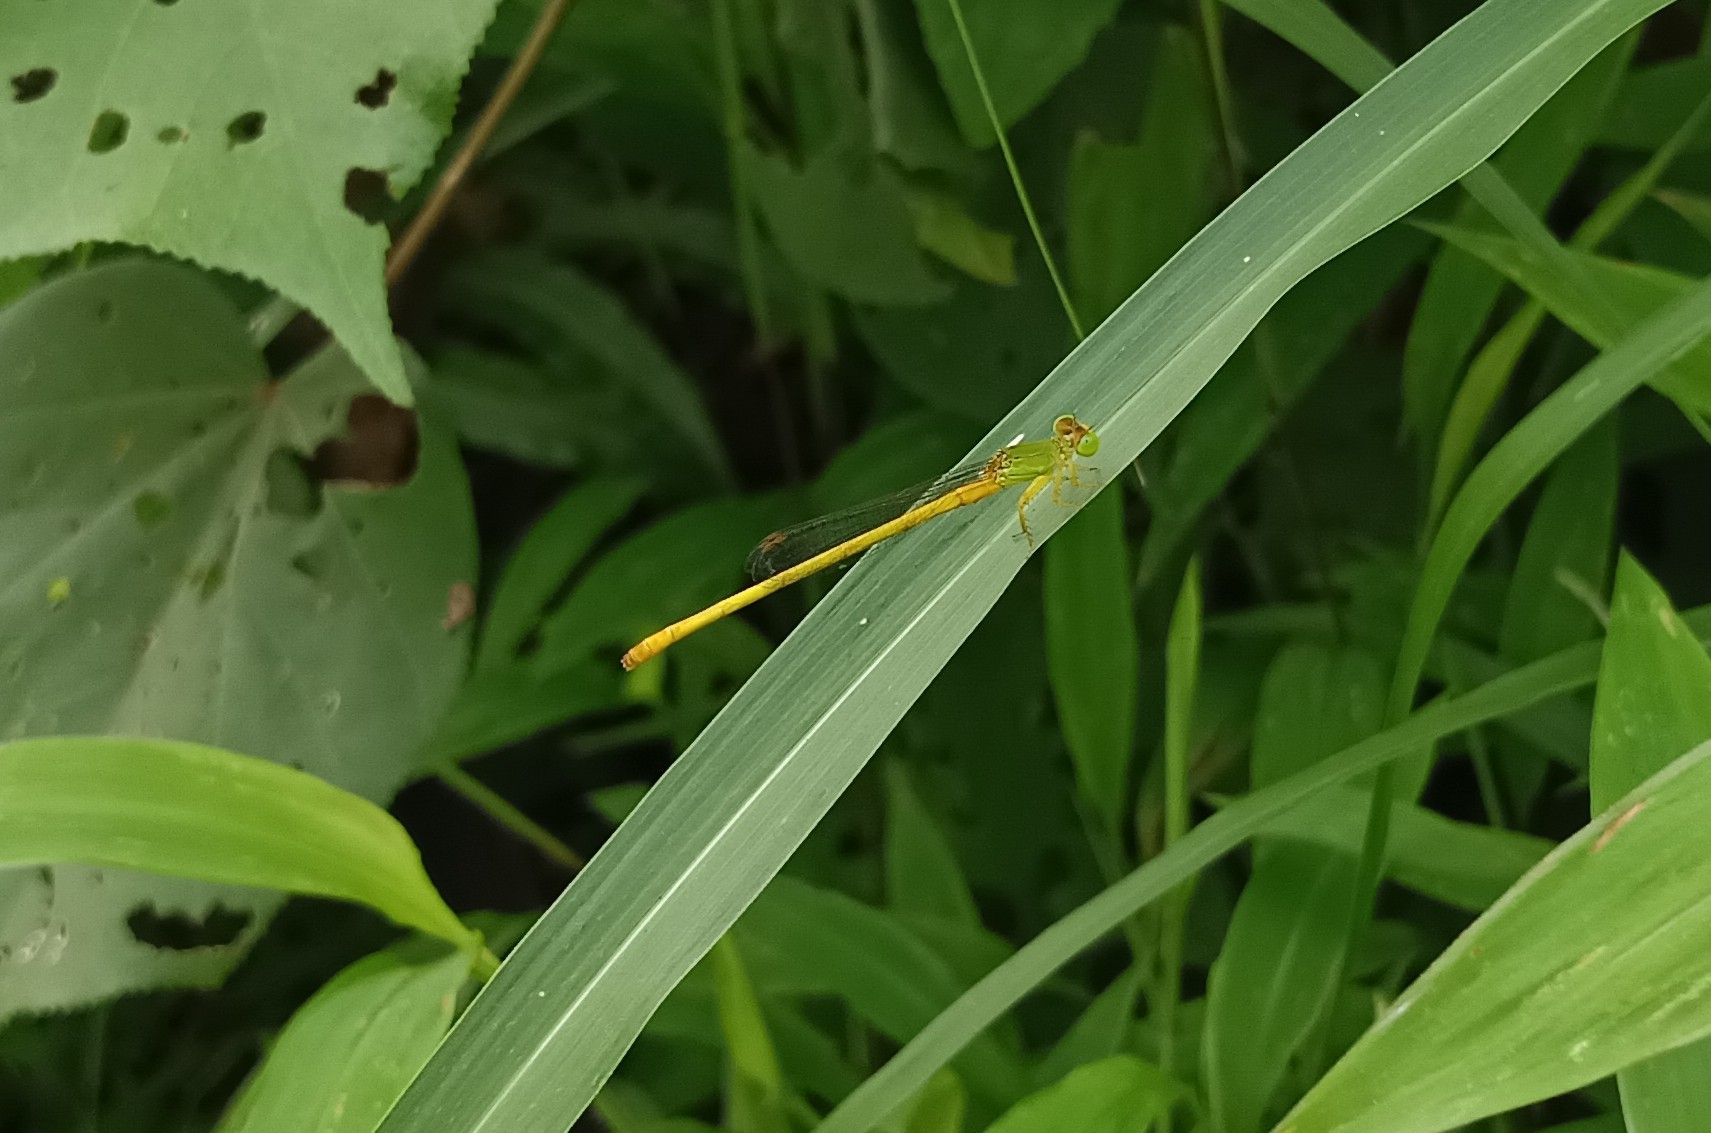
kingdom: Animalia
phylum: Arthropoda
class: Insecta
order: Odonata
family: Coenagrionidae
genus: Ceriagrion
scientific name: Ceriagrion coromandelianum
